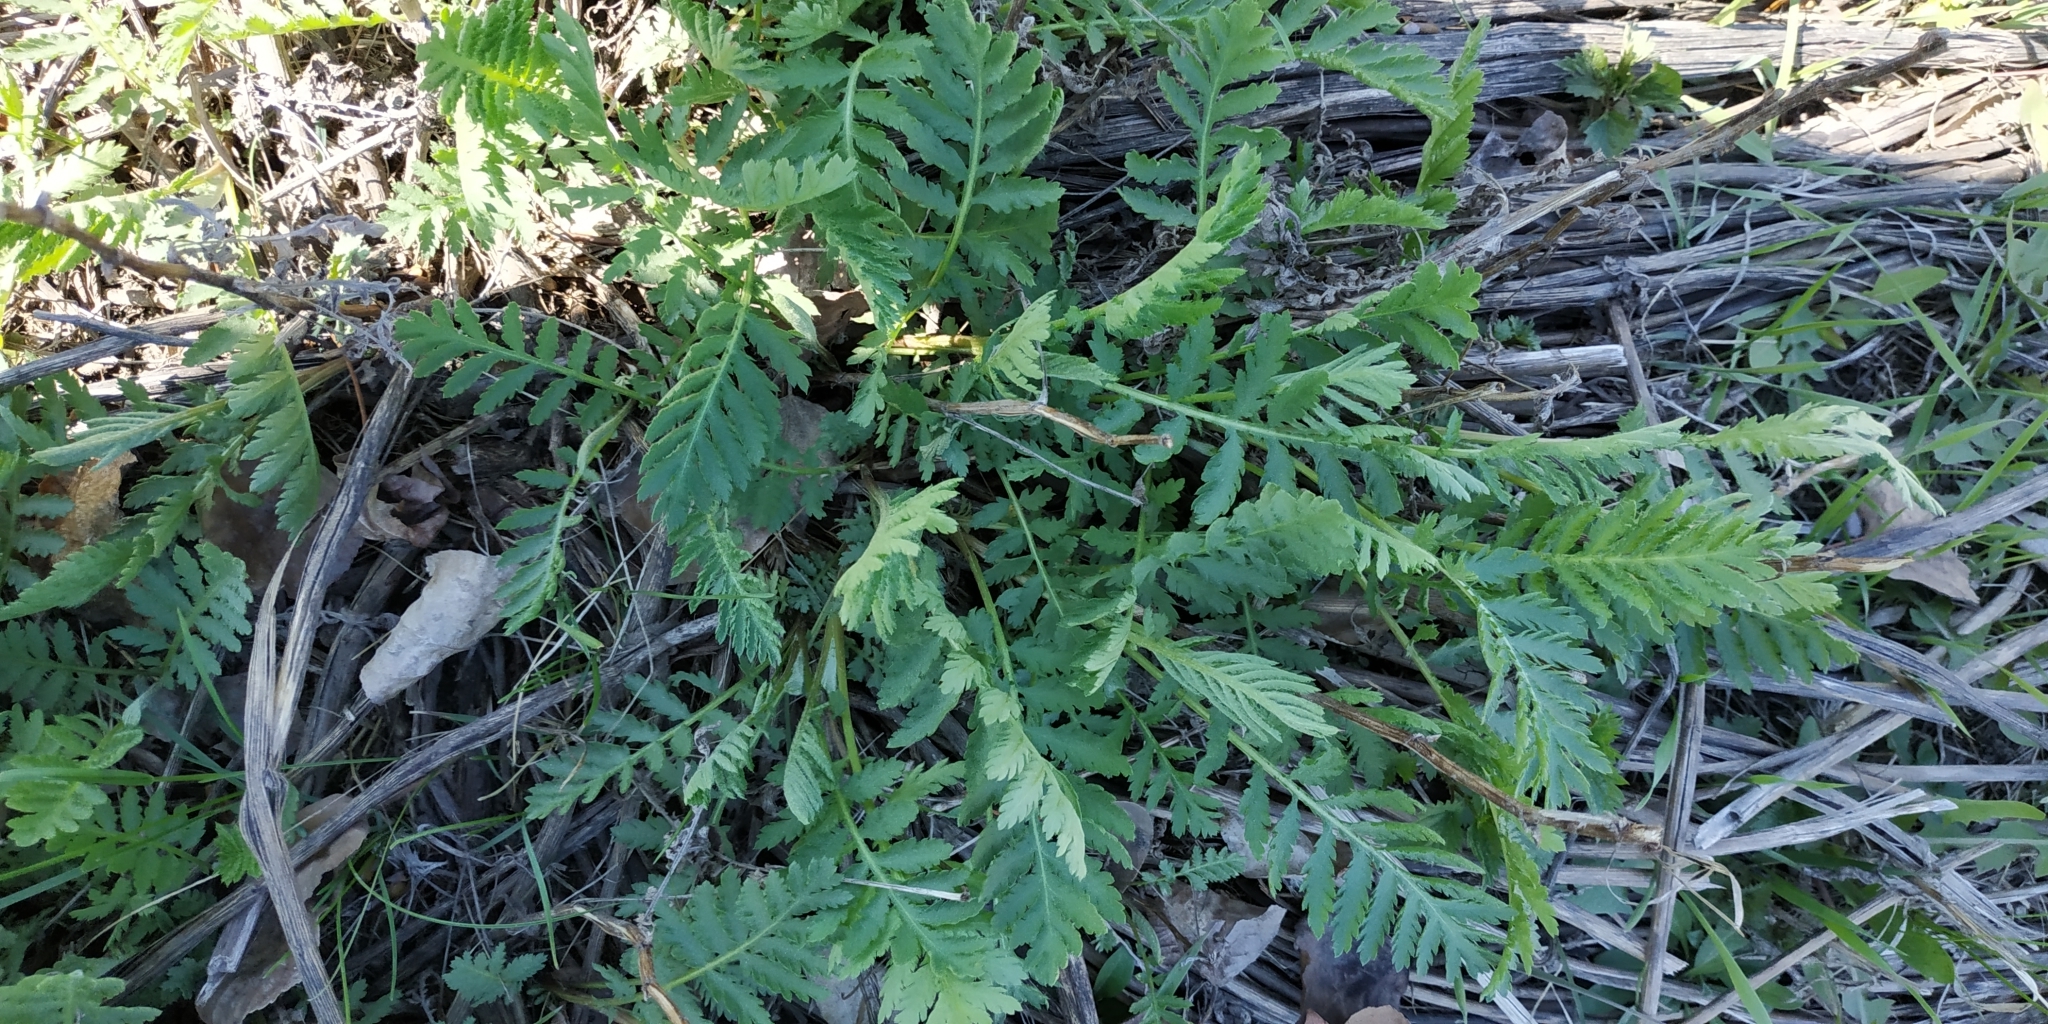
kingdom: Plantae
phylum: Tracheophyta
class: Magnoliopsida
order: Asterales
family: Asteraceae
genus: Tanacetum
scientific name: Tanacetum vulgare
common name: Common tansy
